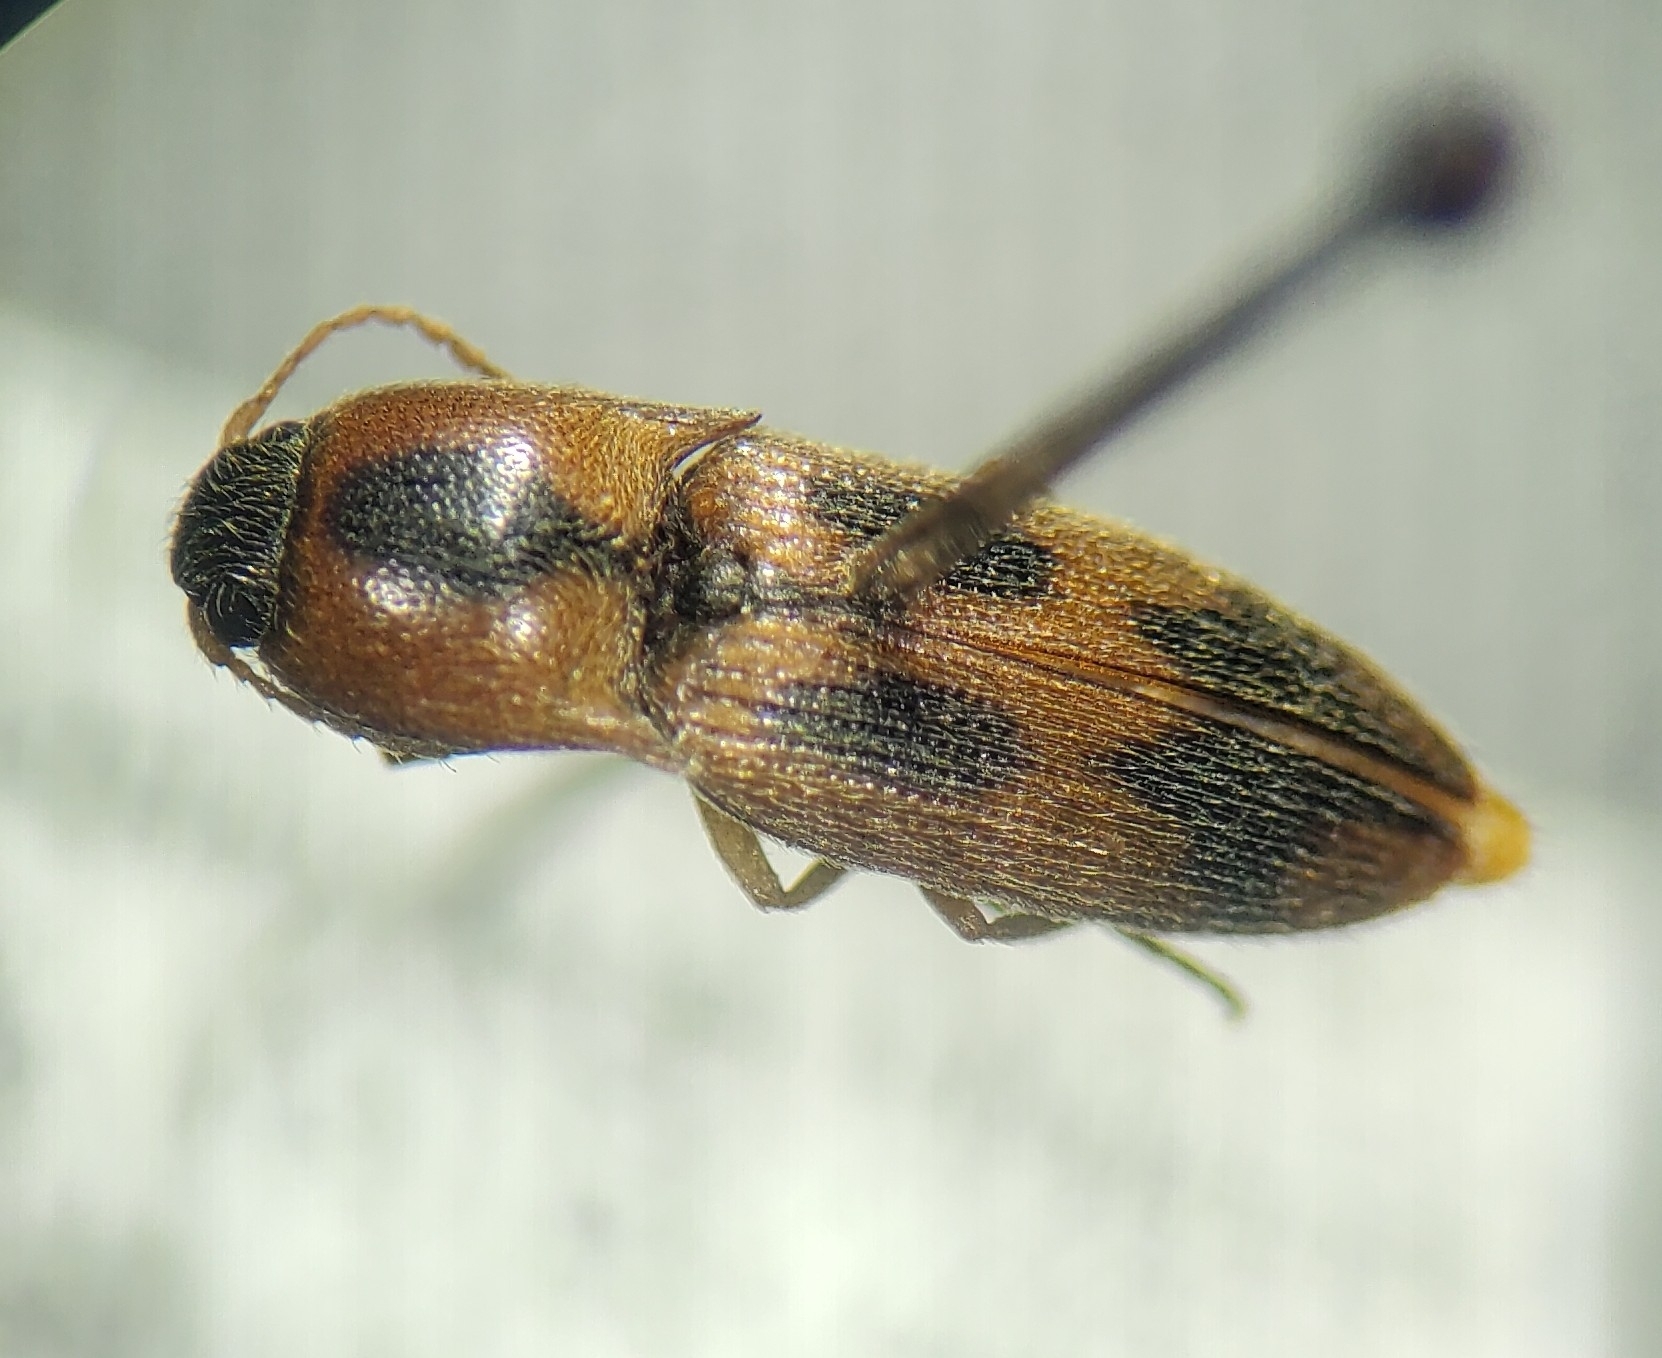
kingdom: Animalia
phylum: Arthropoda
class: Insecta
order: Coleoptera
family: Elateridae
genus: Aeolus
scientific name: Aeolus mellillus
